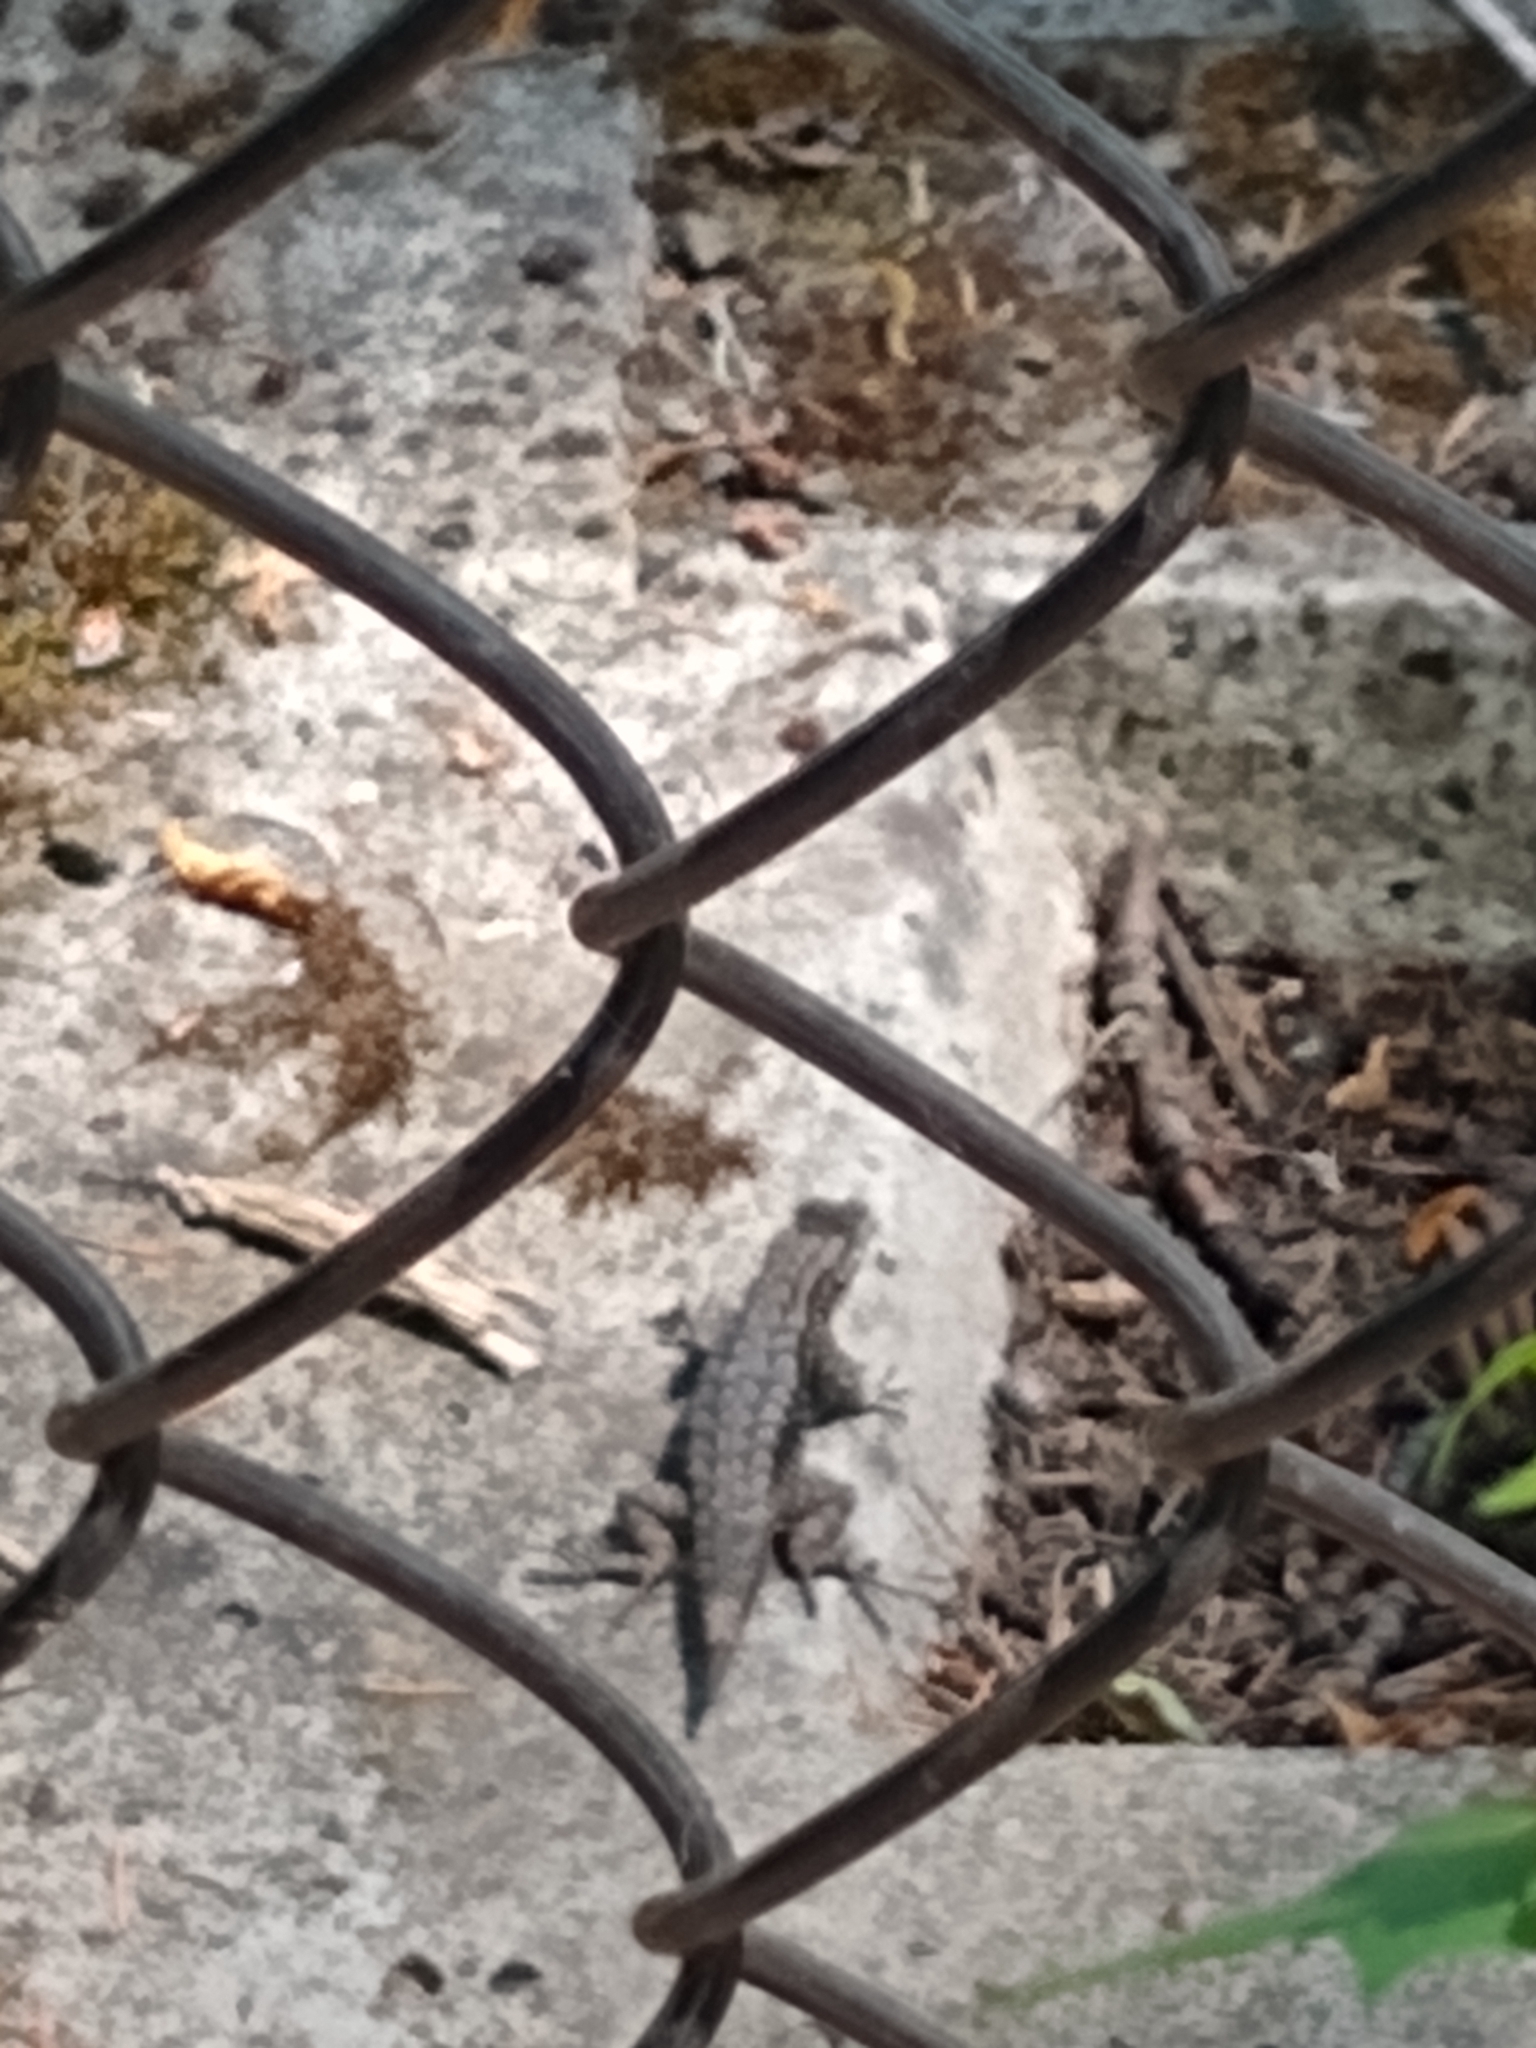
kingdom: Animalia
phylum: Chordata
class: Squamata
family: Phrynosomatidae
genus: Sceloporus
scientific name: Sceloporus occidentalis
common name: Western fence lizard
